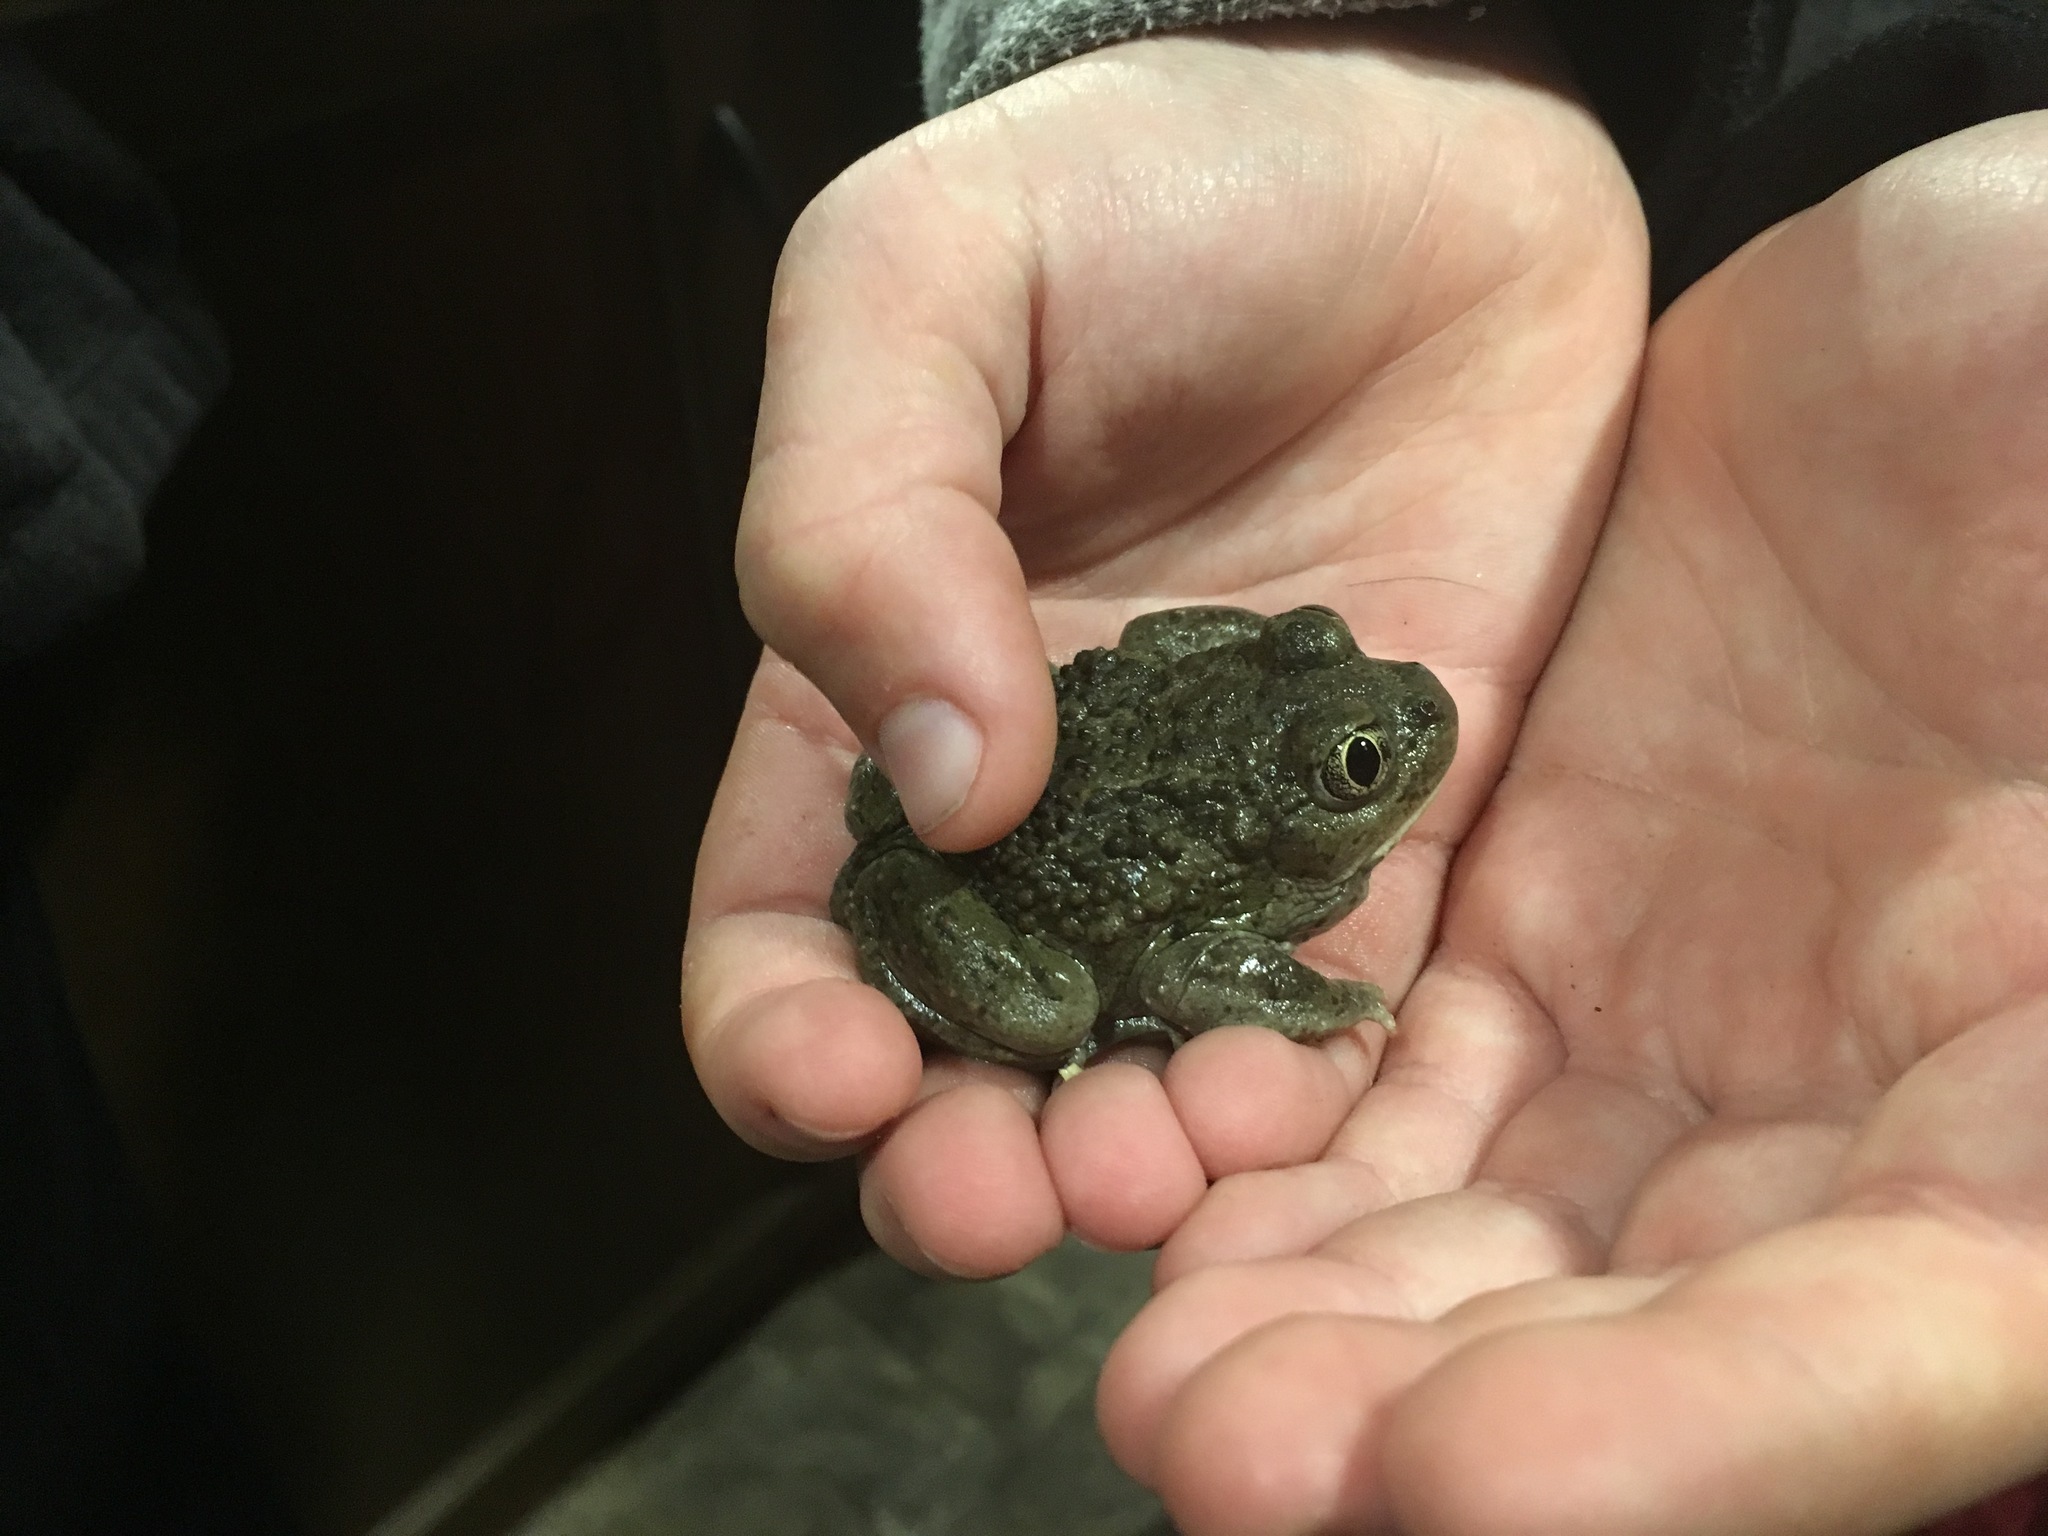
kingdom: Animalia
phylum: Chordata
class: Amphibia
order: Anura
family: Scaphiopodidae
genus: Spea
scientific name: Spea intermontana
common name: Great basin spadefoot
